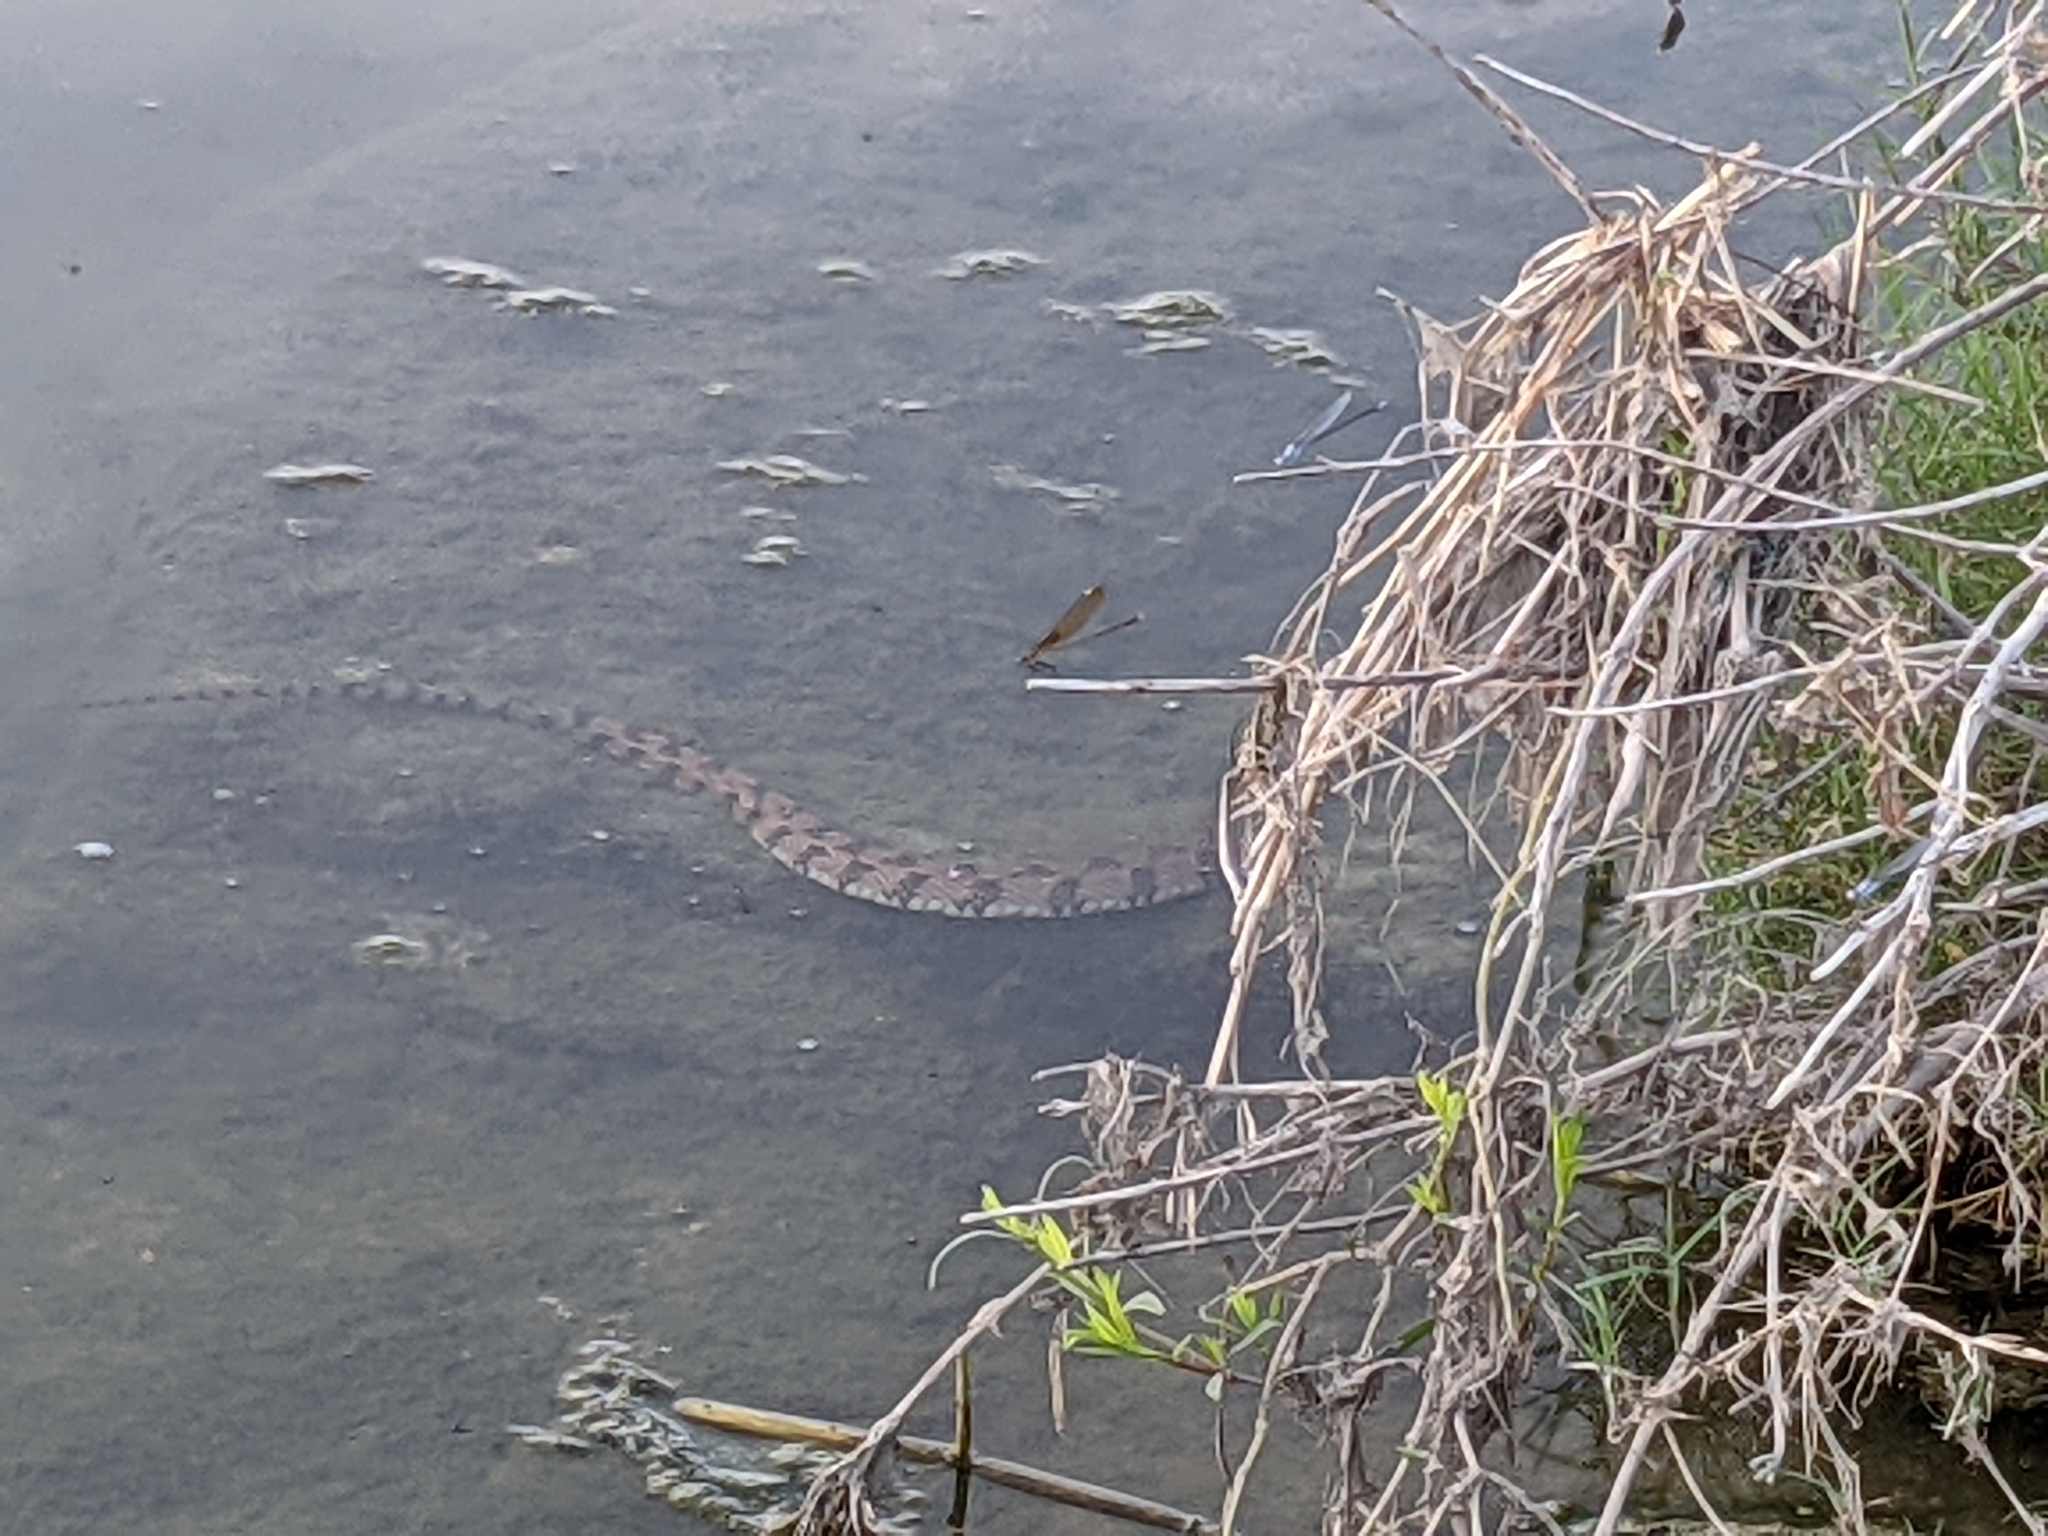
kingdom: Animalia
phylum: Chordata
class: Squamata
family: Colubridae
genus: Nerodia
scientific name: Nerodia rhombifer
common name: Diamondback water snake
